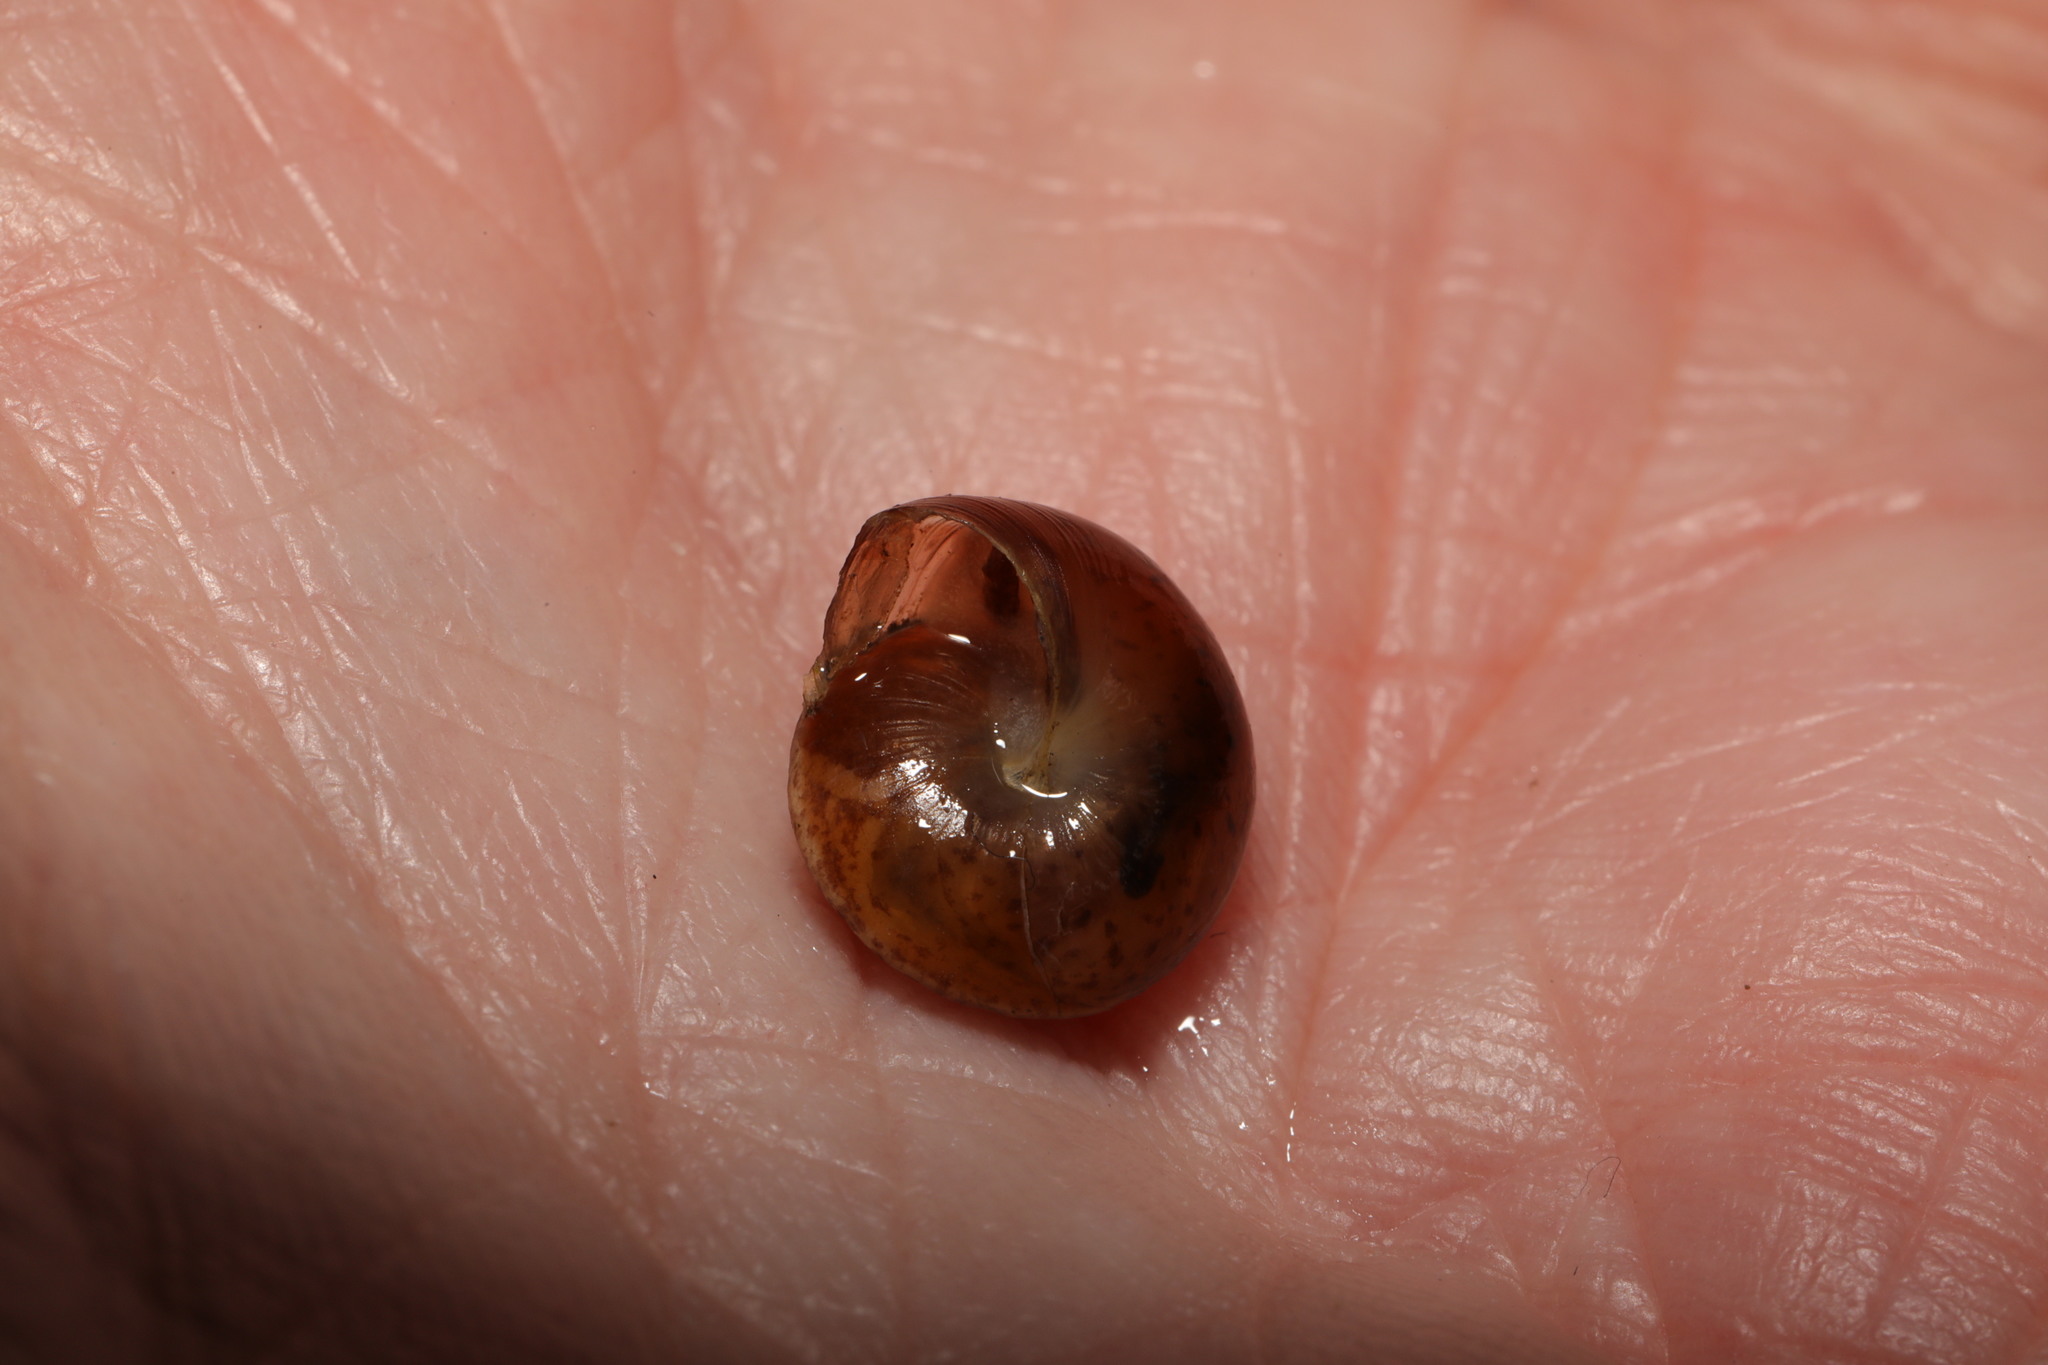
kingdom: Animalia
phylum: Mollusca
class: Gastropoda
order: Stylommatophora
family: Hygromiidae
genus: Hygromia
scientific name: Hygromia cinctella
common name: Girdled snail
